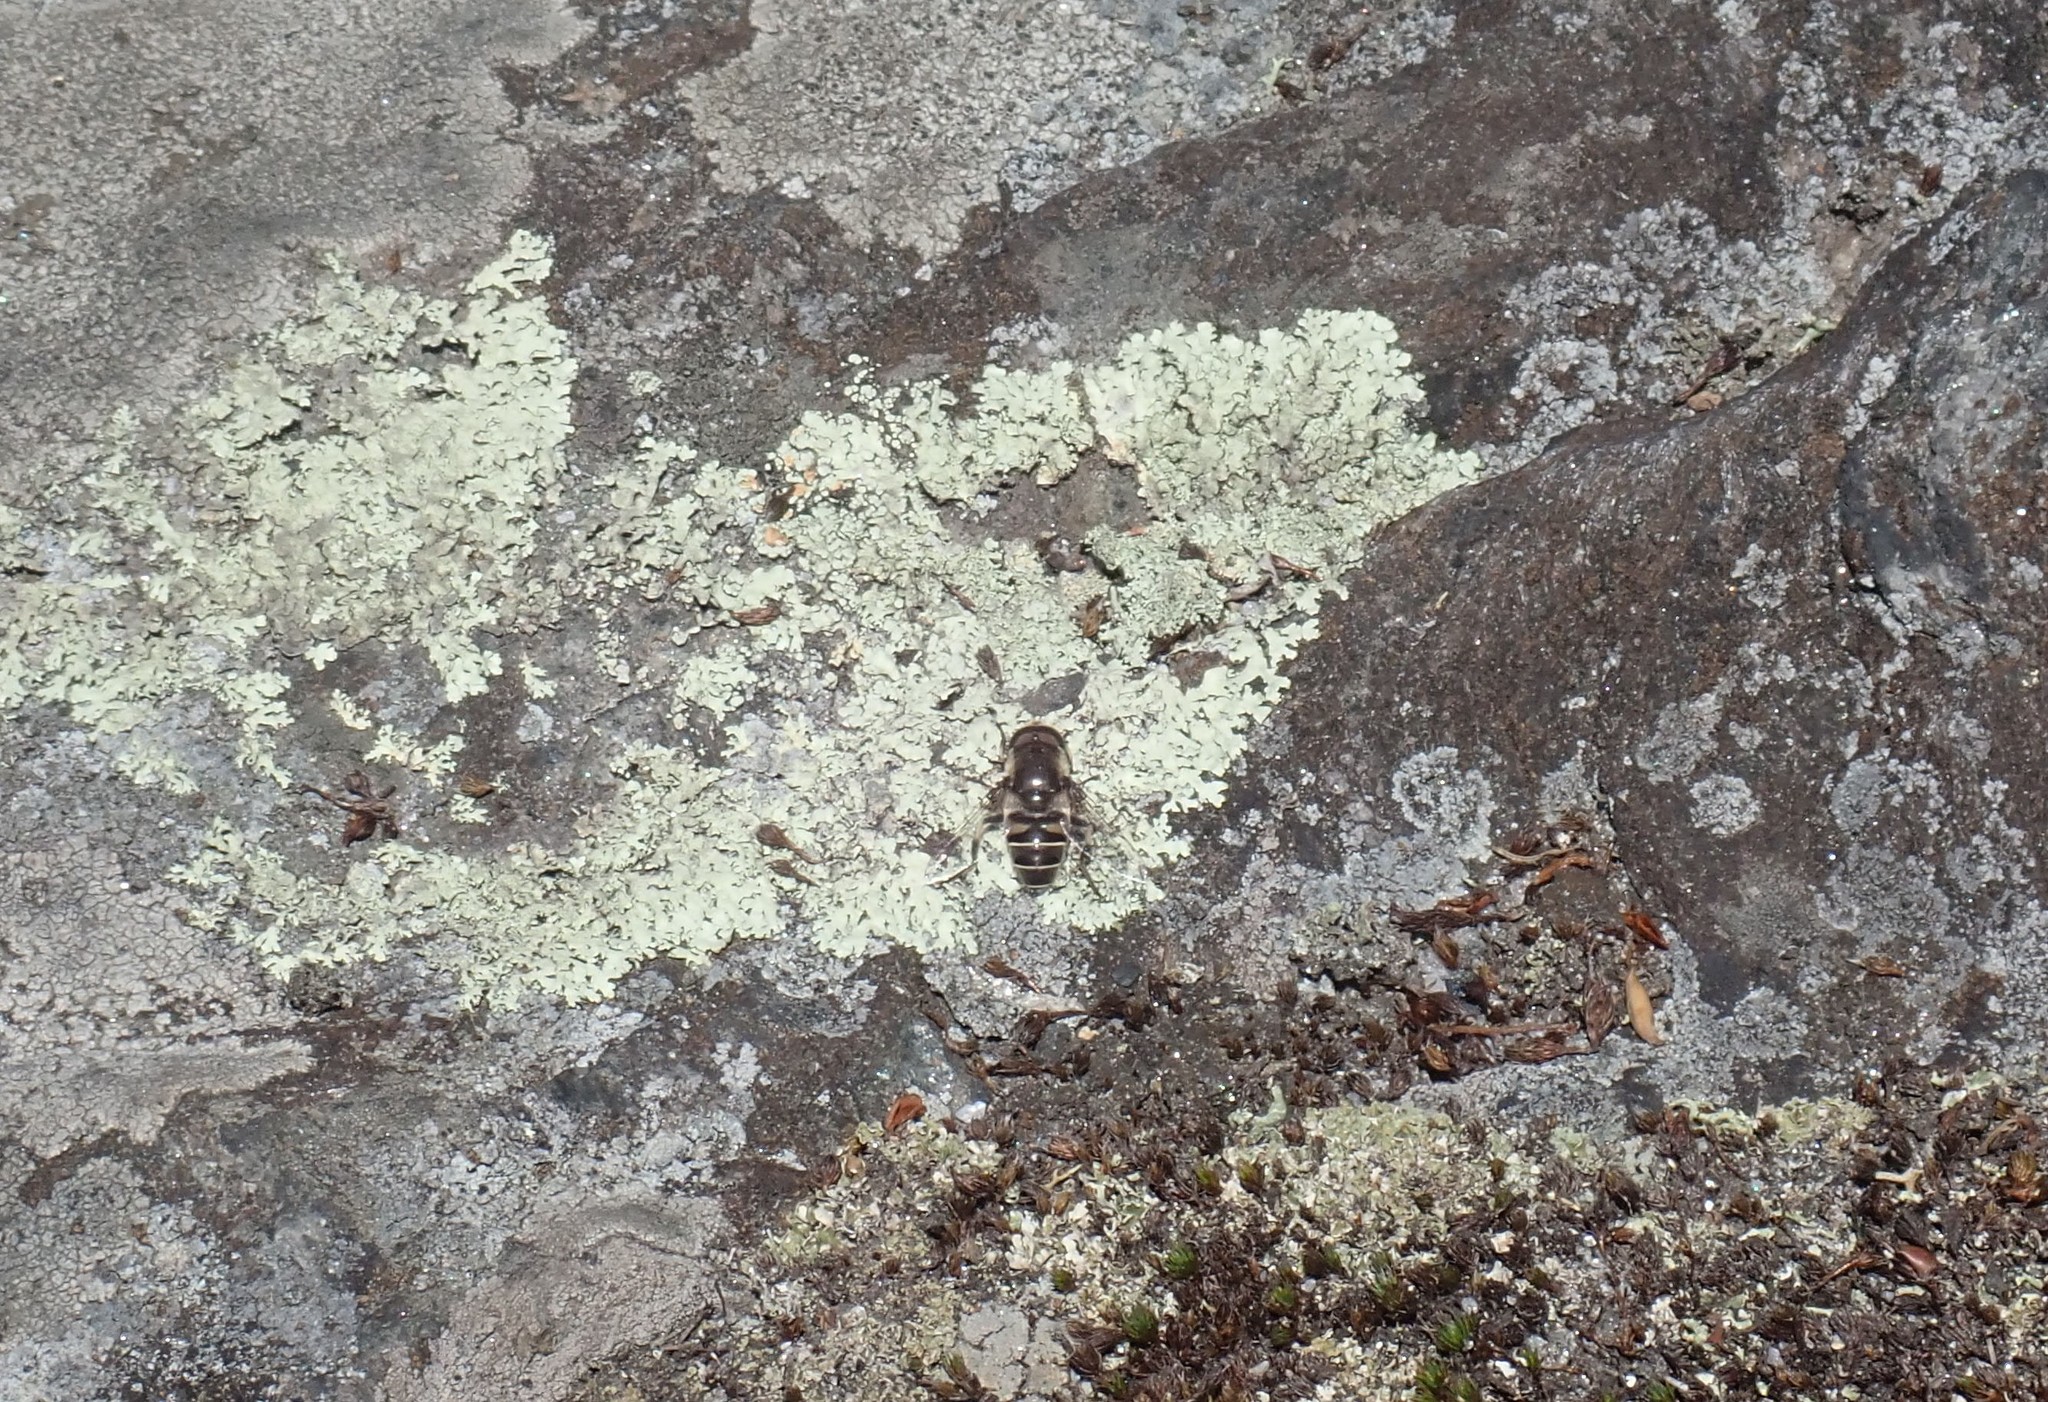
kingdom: Animalia
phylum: Arthropoda
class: Insecta
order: Diptera
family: Syrphidae
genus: Eristalis
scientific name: Eristalis dimidiata
